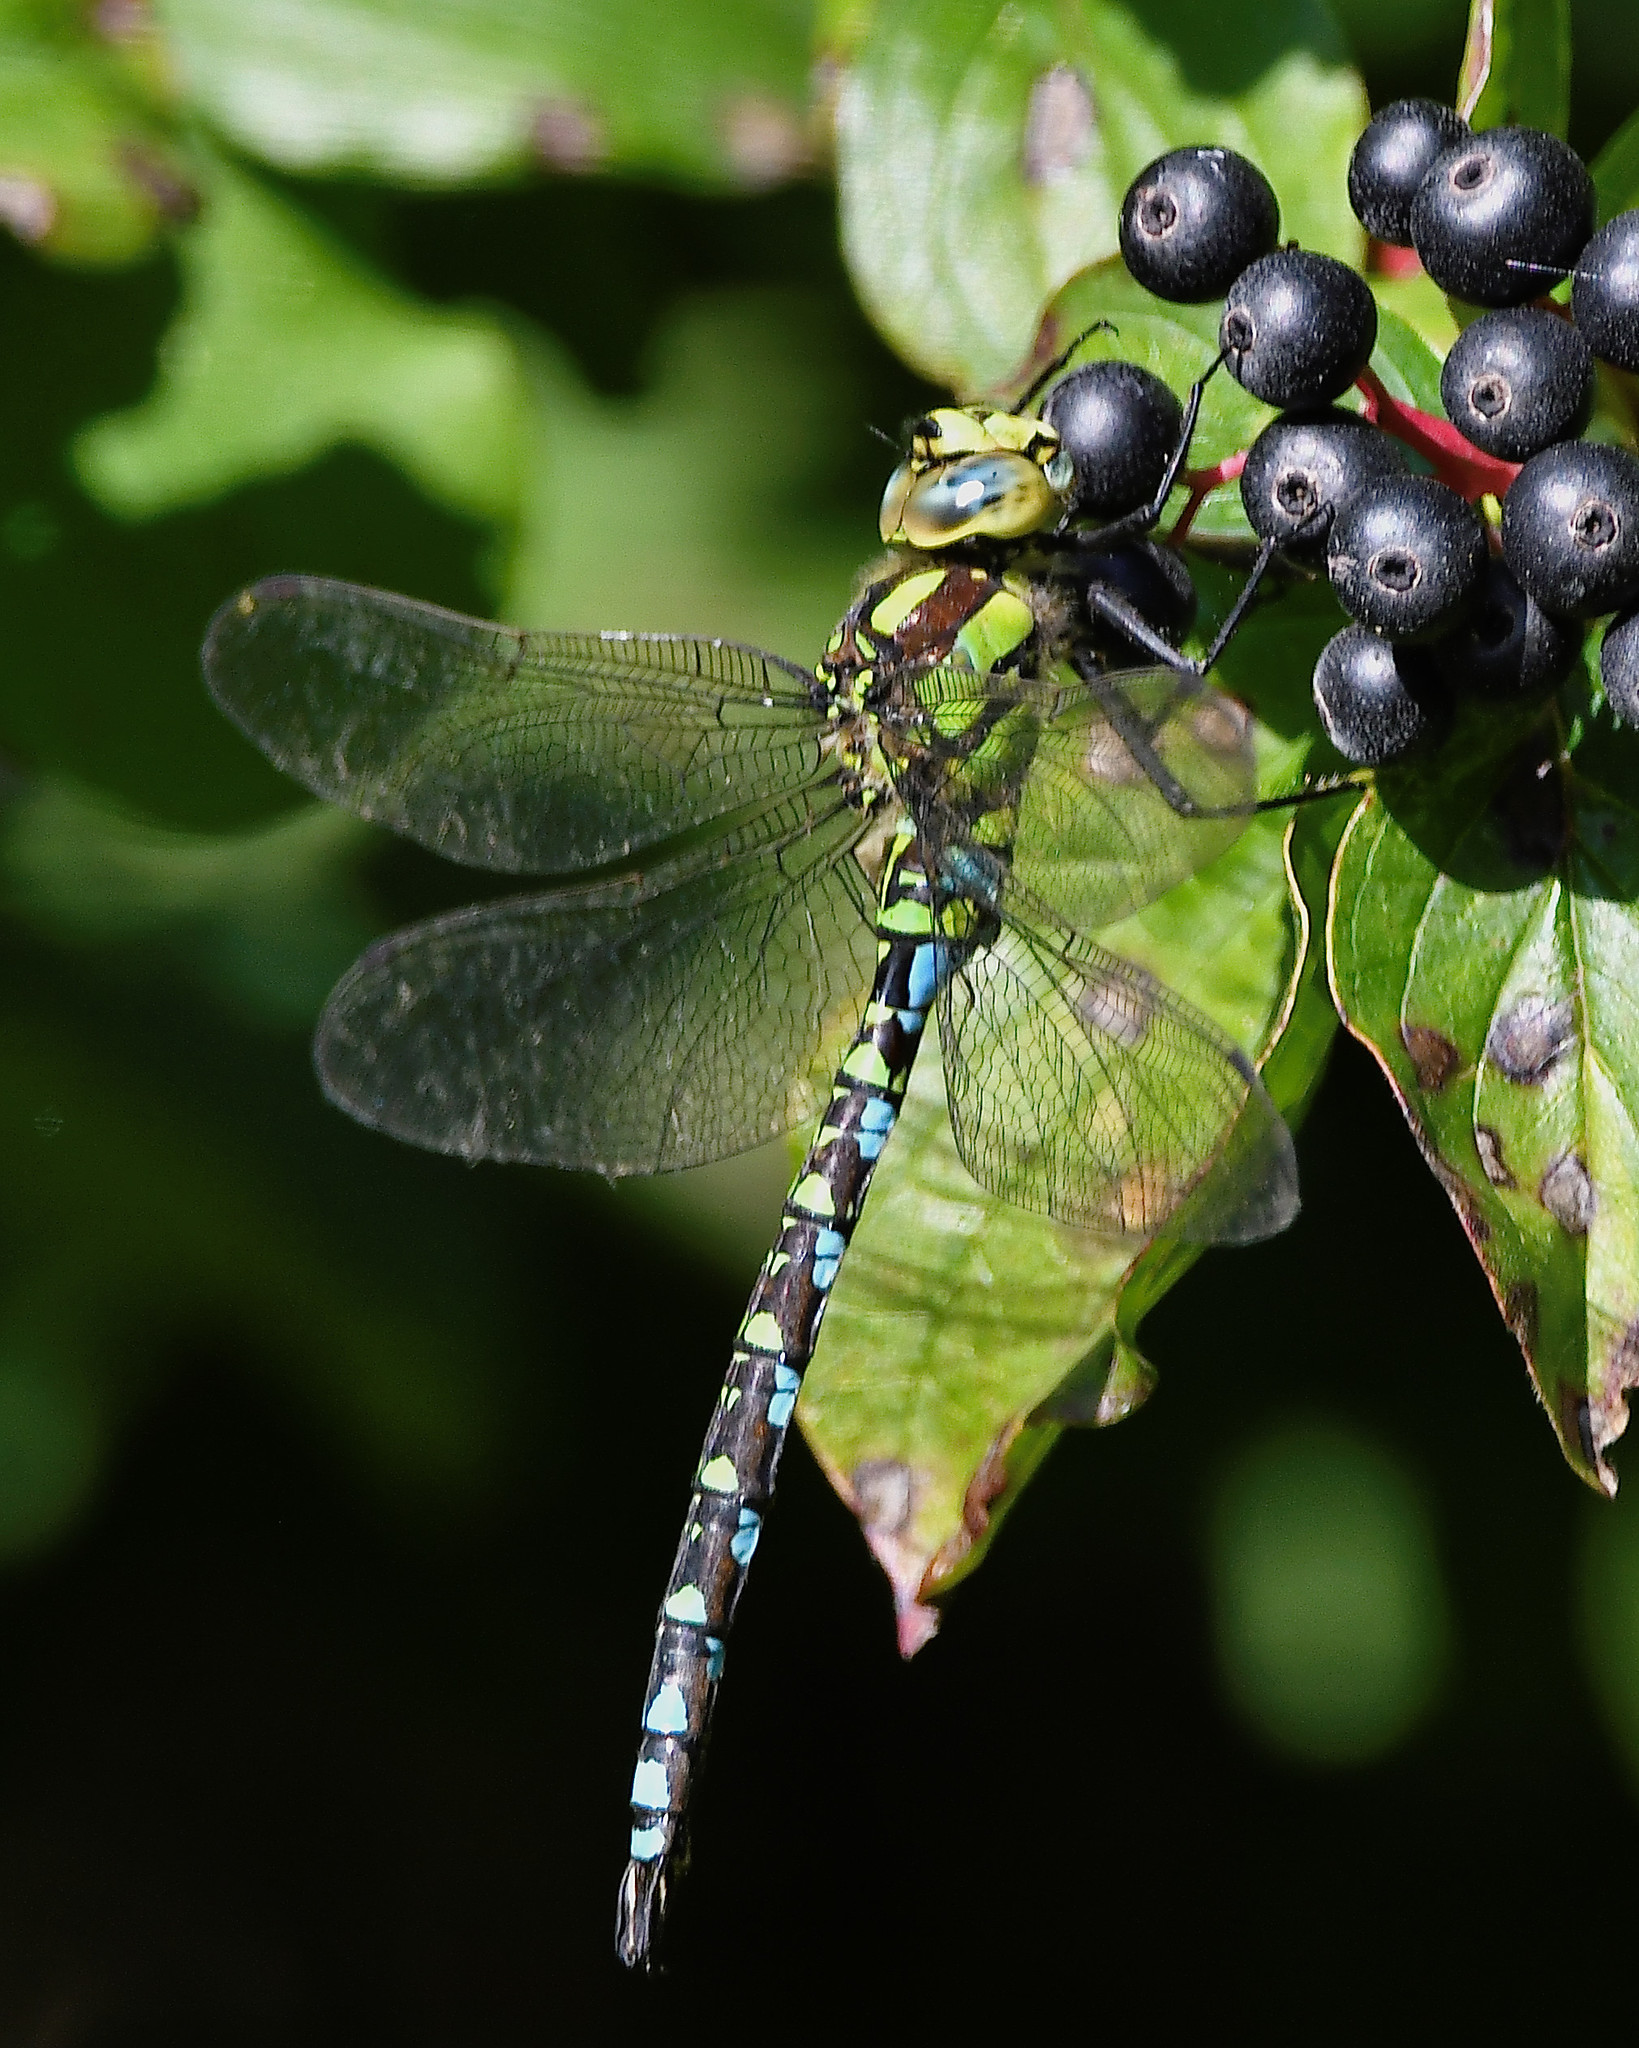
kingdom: Animalia
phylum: Arthropoda
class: Insecta
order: Odonata
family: Aeshnidae
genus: Aeshna
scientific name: Aeshna cyanea
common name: Southern hawker
